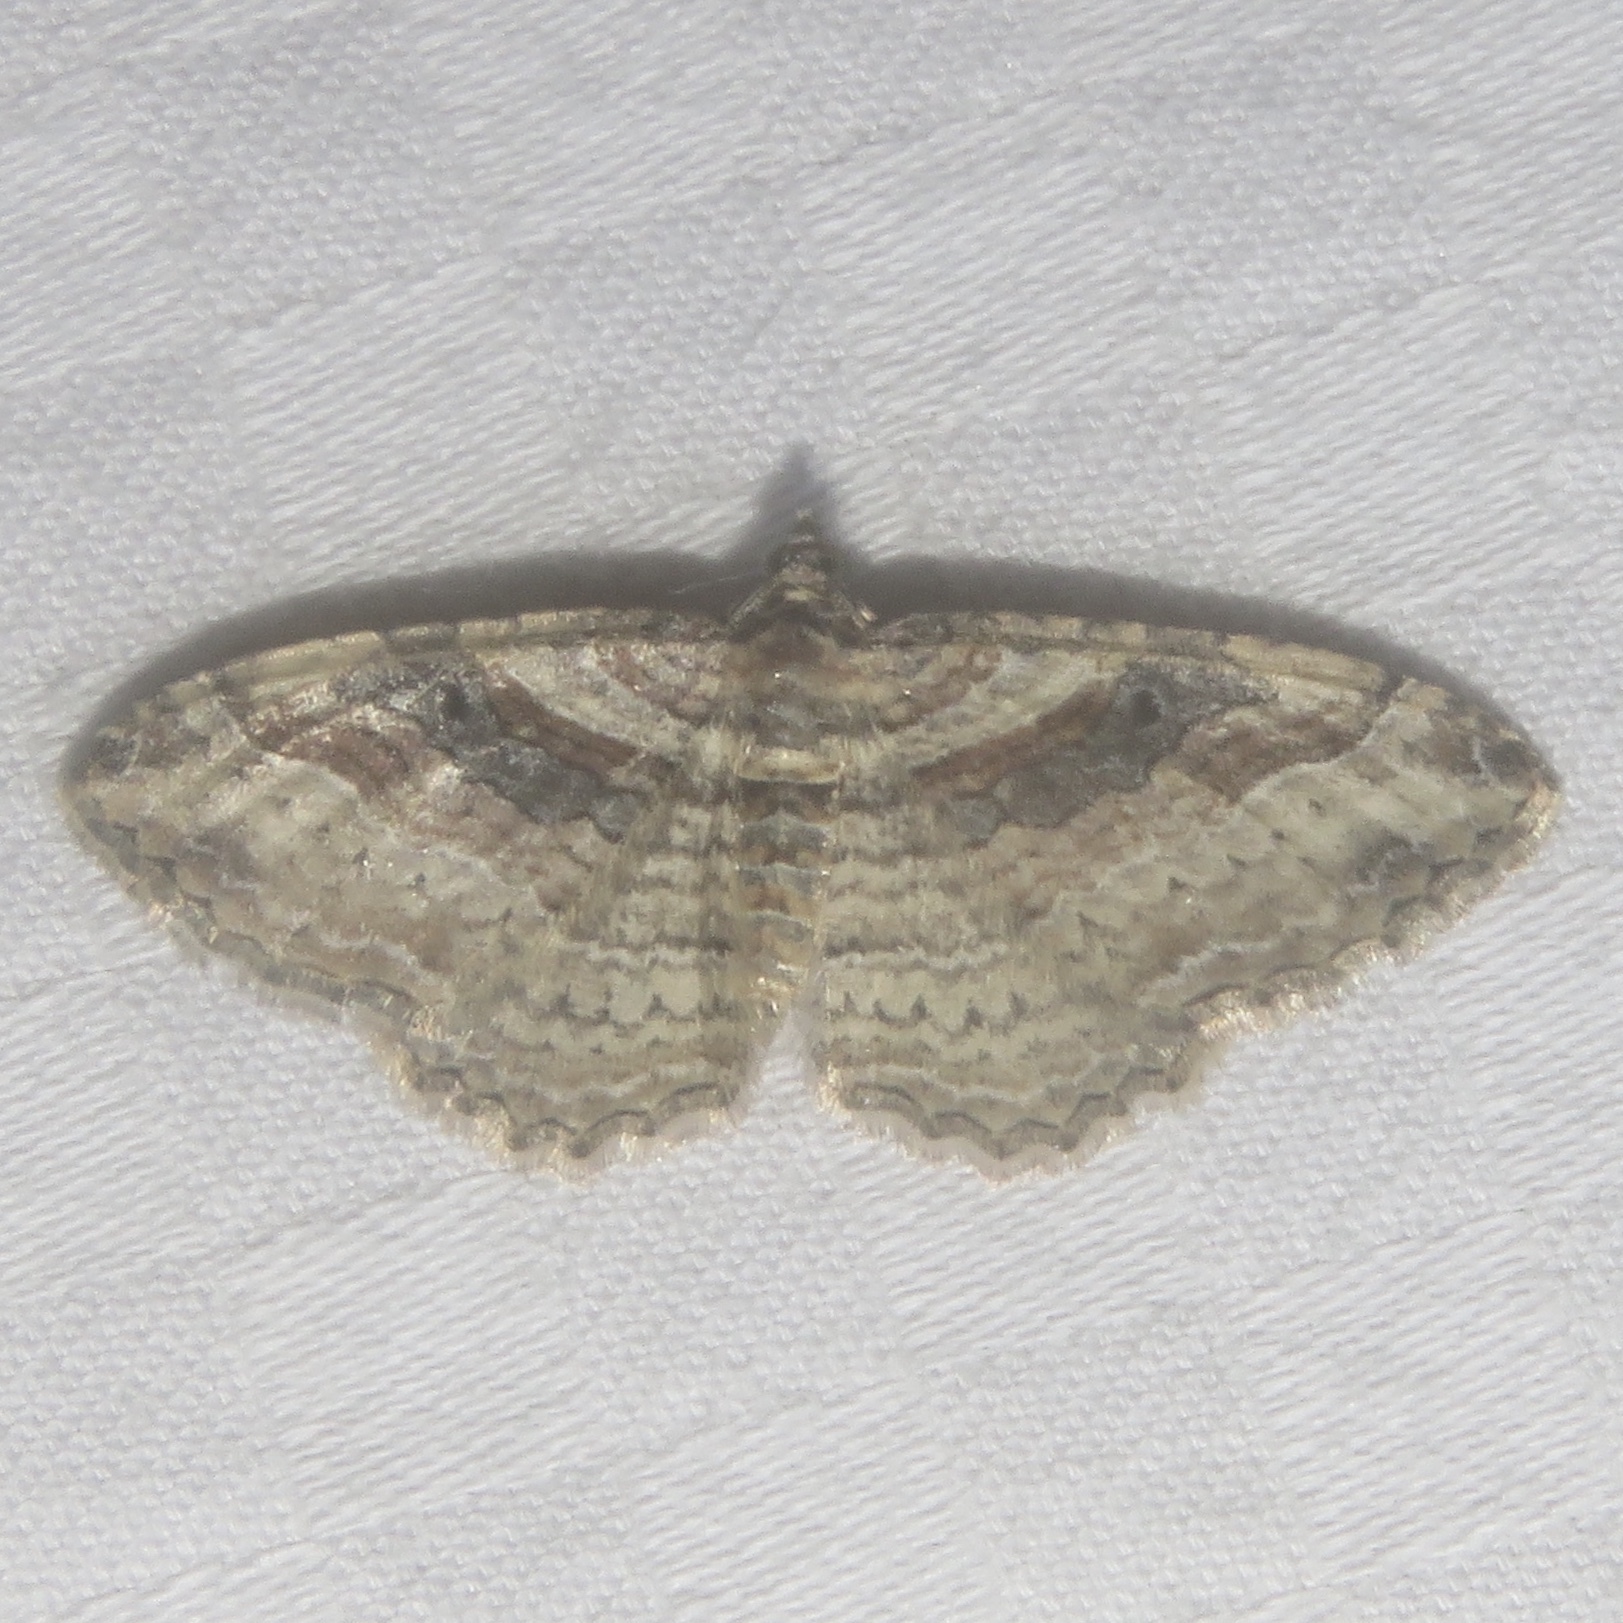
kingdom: Animalia
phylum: Arthropoda
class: Insecta
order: Lepidoptera
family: Geometridae
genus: Costaconvexa
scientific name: Costaconvexa centrostrigaria
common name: Bent-line carpet
